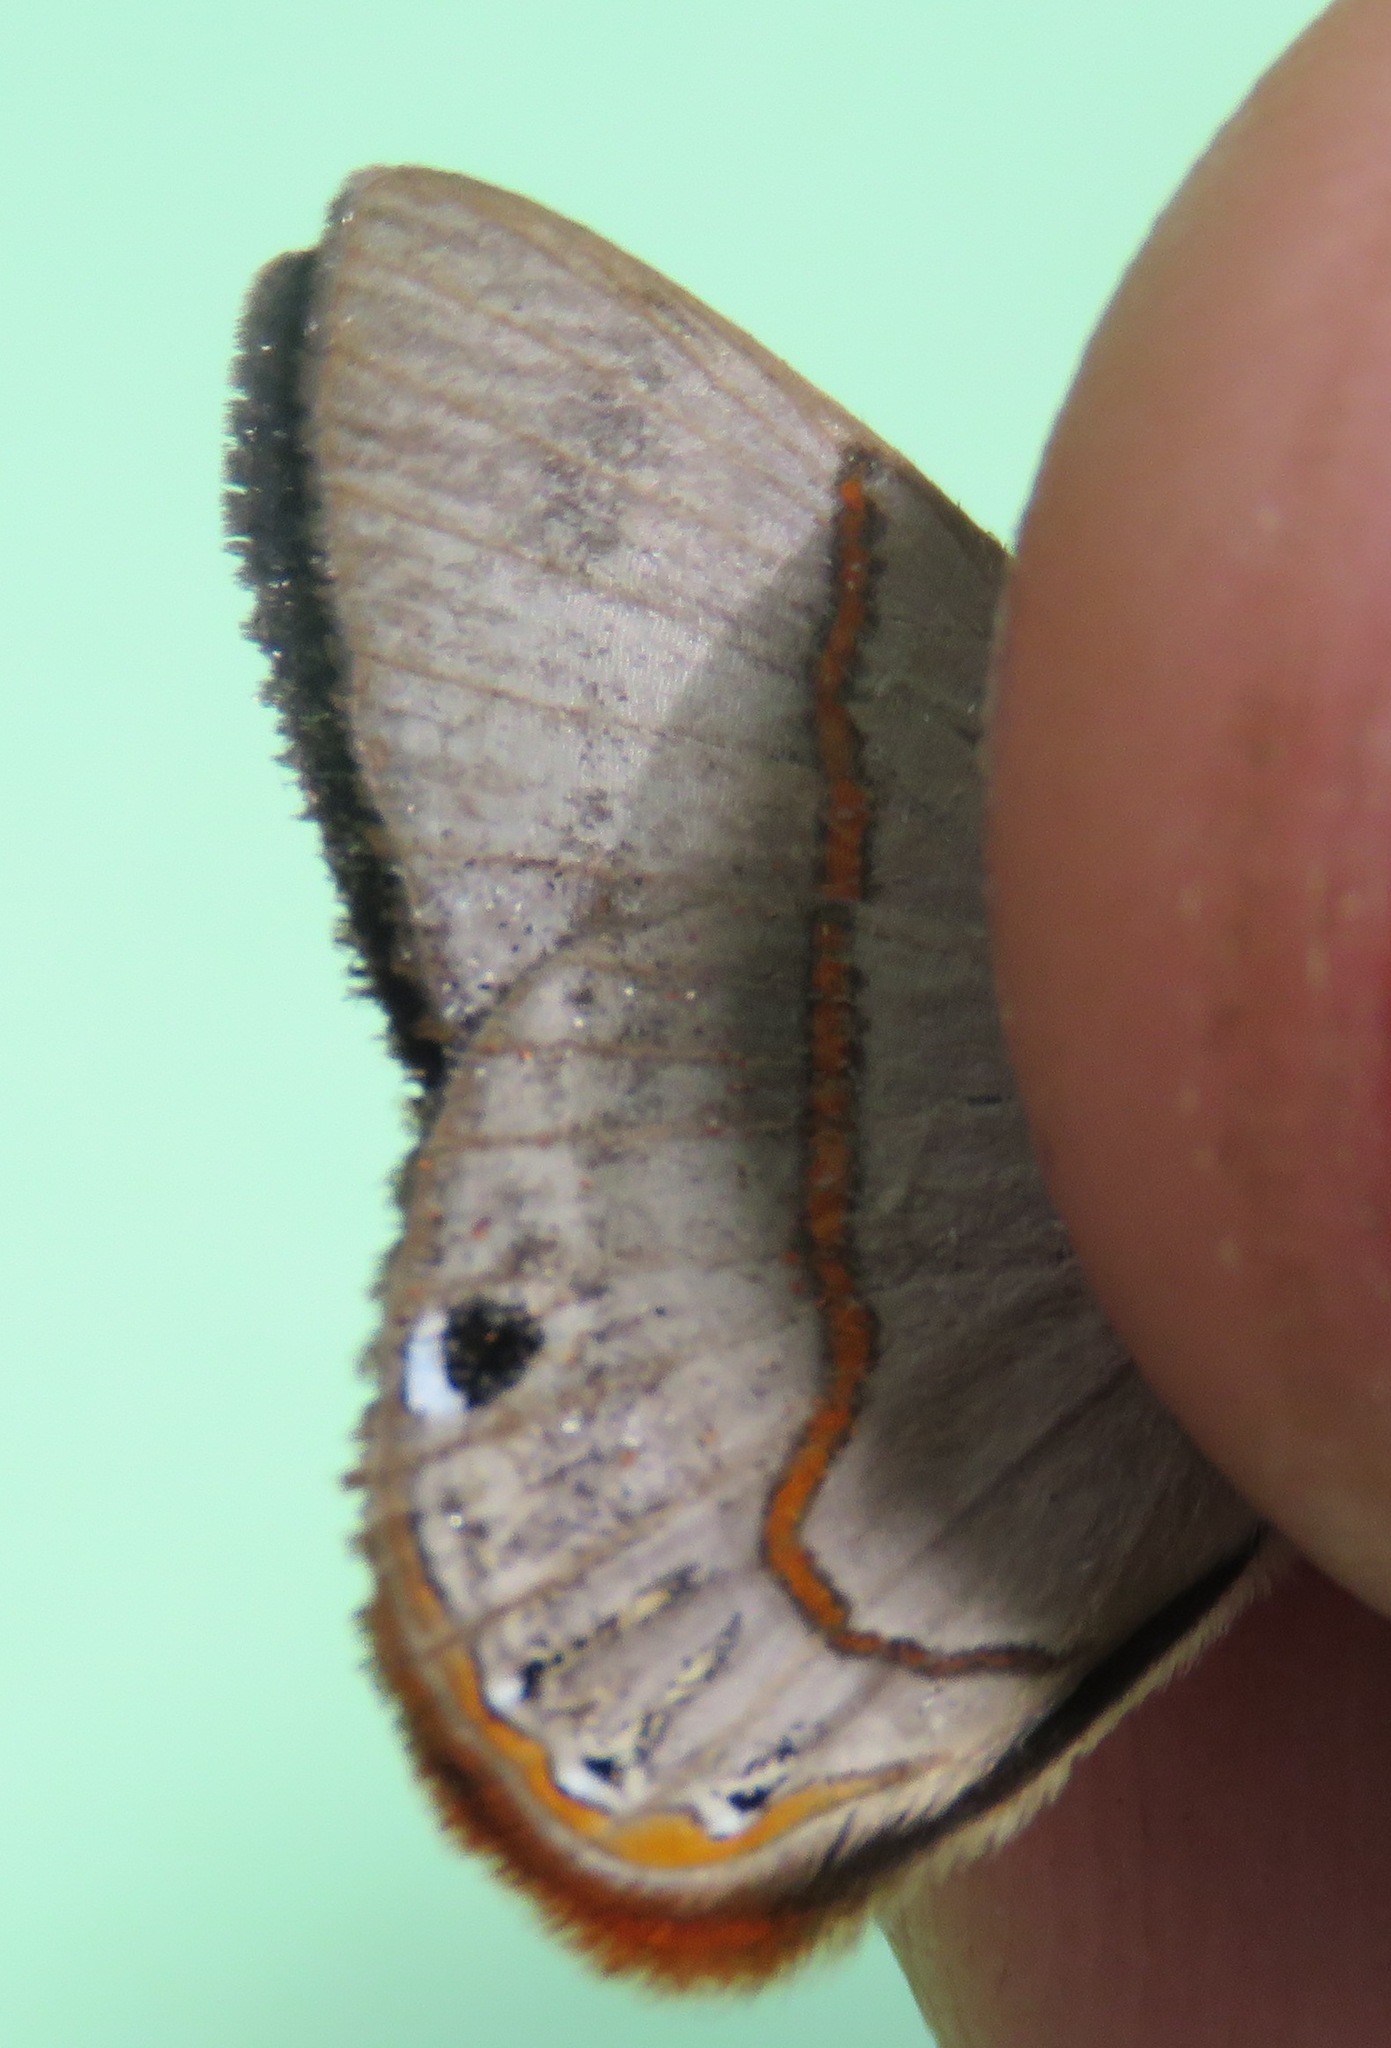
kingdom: Animalia
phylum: Arthropoda
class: Insecta
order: Lepidoptera
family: Riodinidae
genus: Myselasia
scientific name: Myselasia
